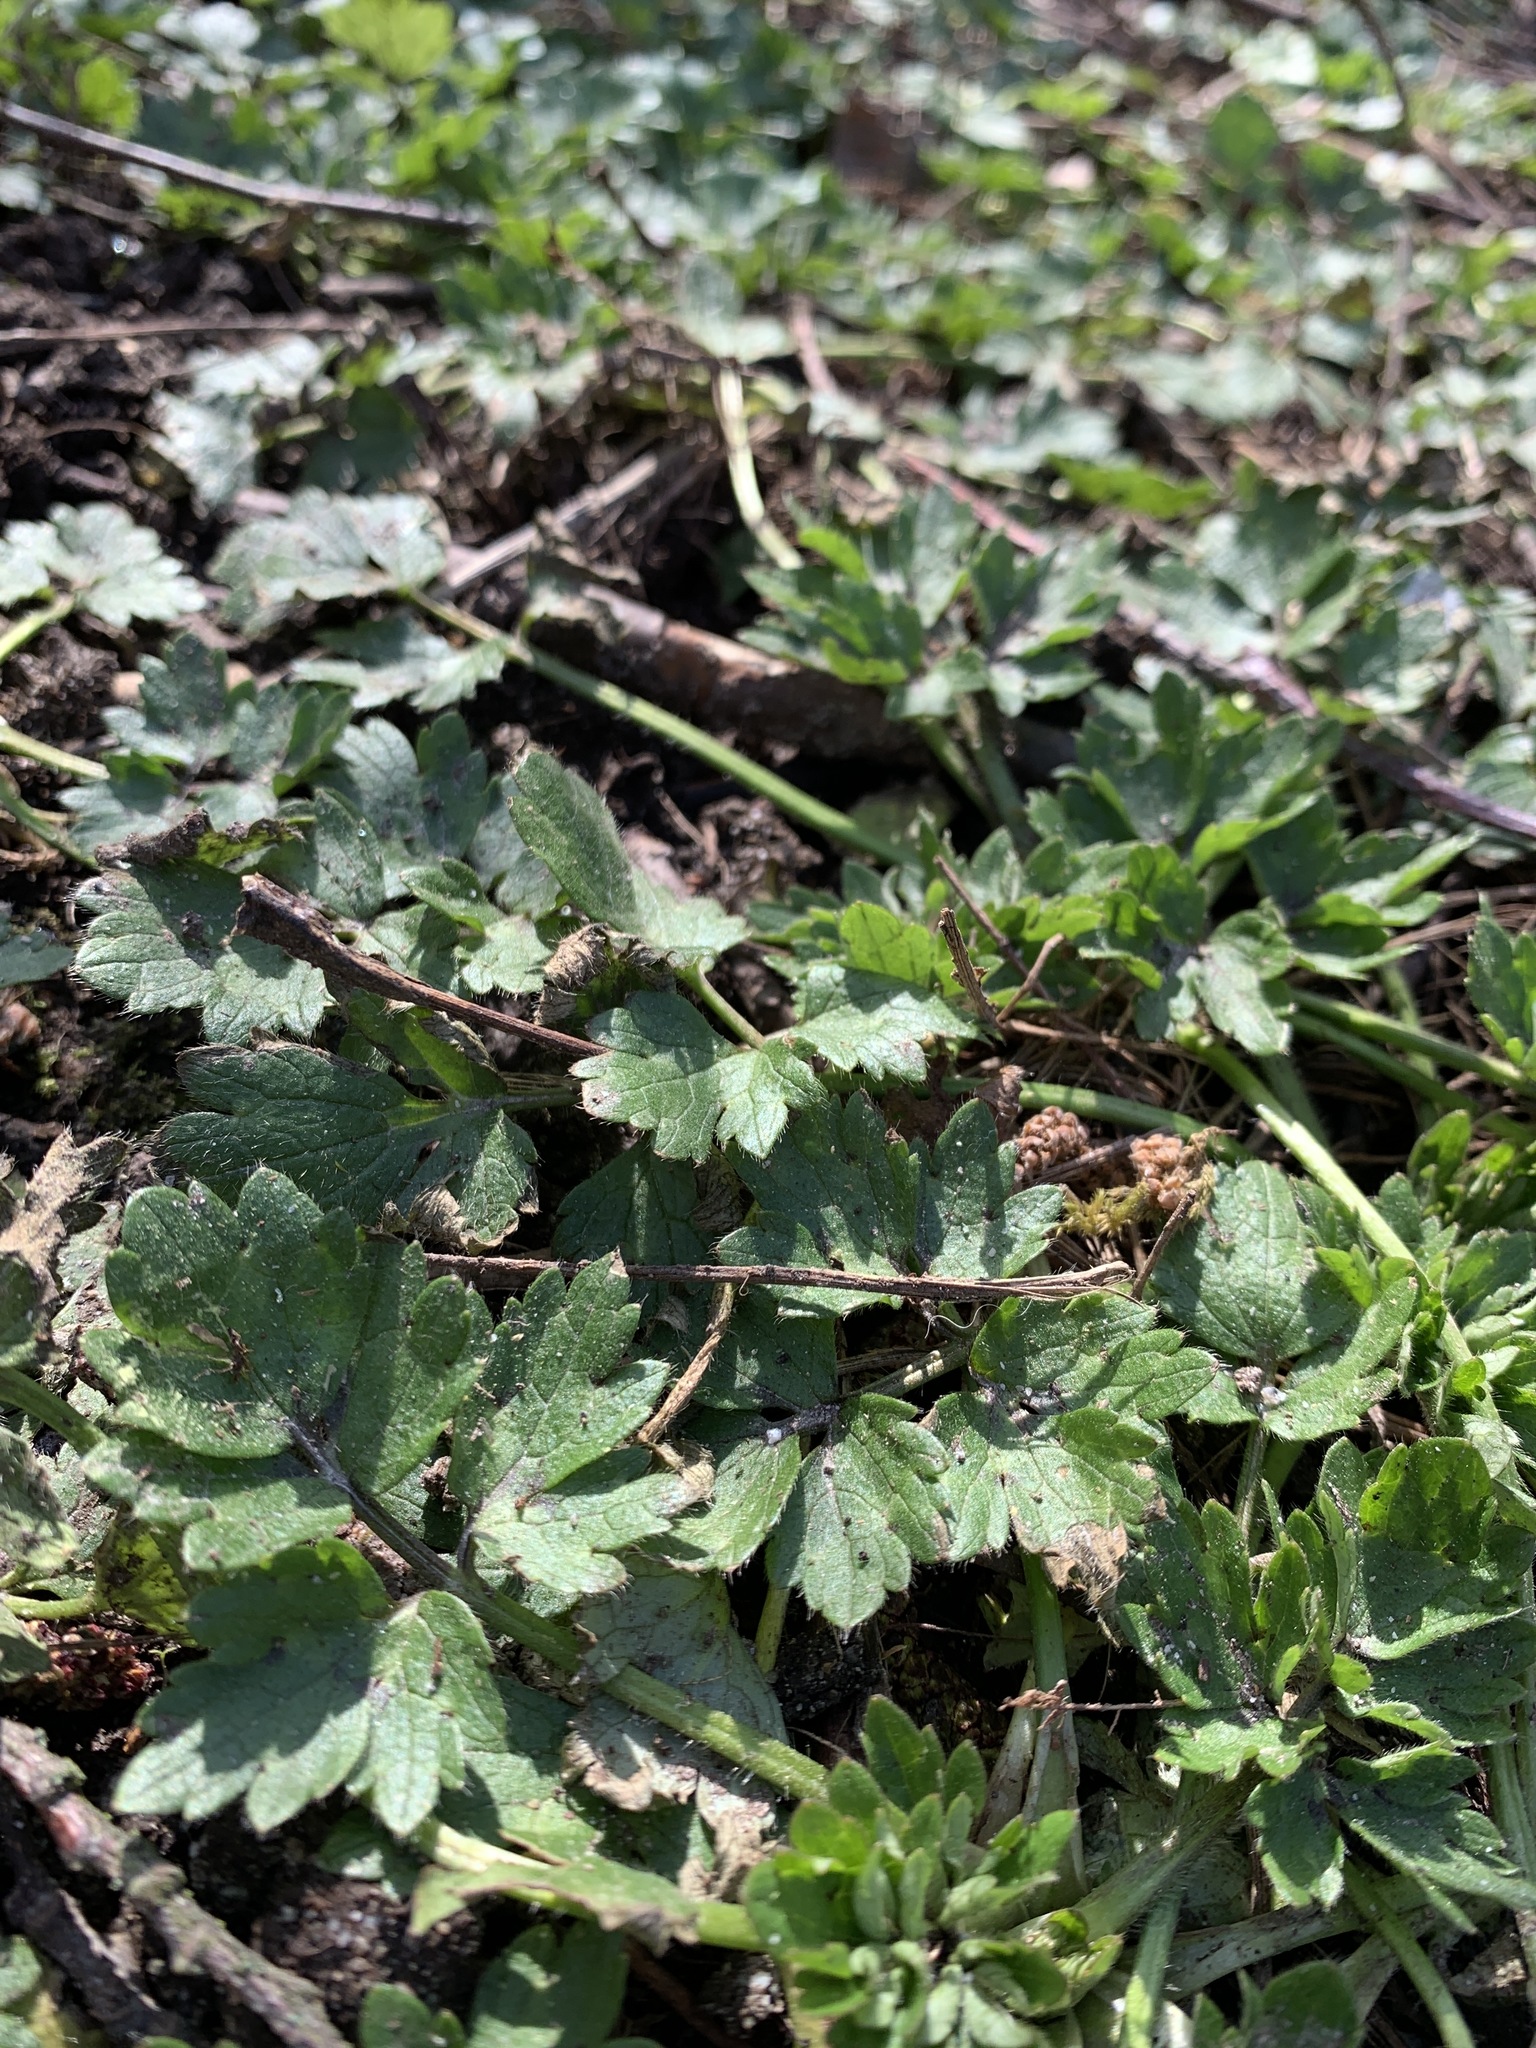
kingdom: Plantae
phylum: Tracheophyta
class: Magnoliopsida
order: Ranunculales
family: Ranunculaceae
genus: Ranunculus
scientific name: Ranunculus repens
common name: Creeping buttercup
